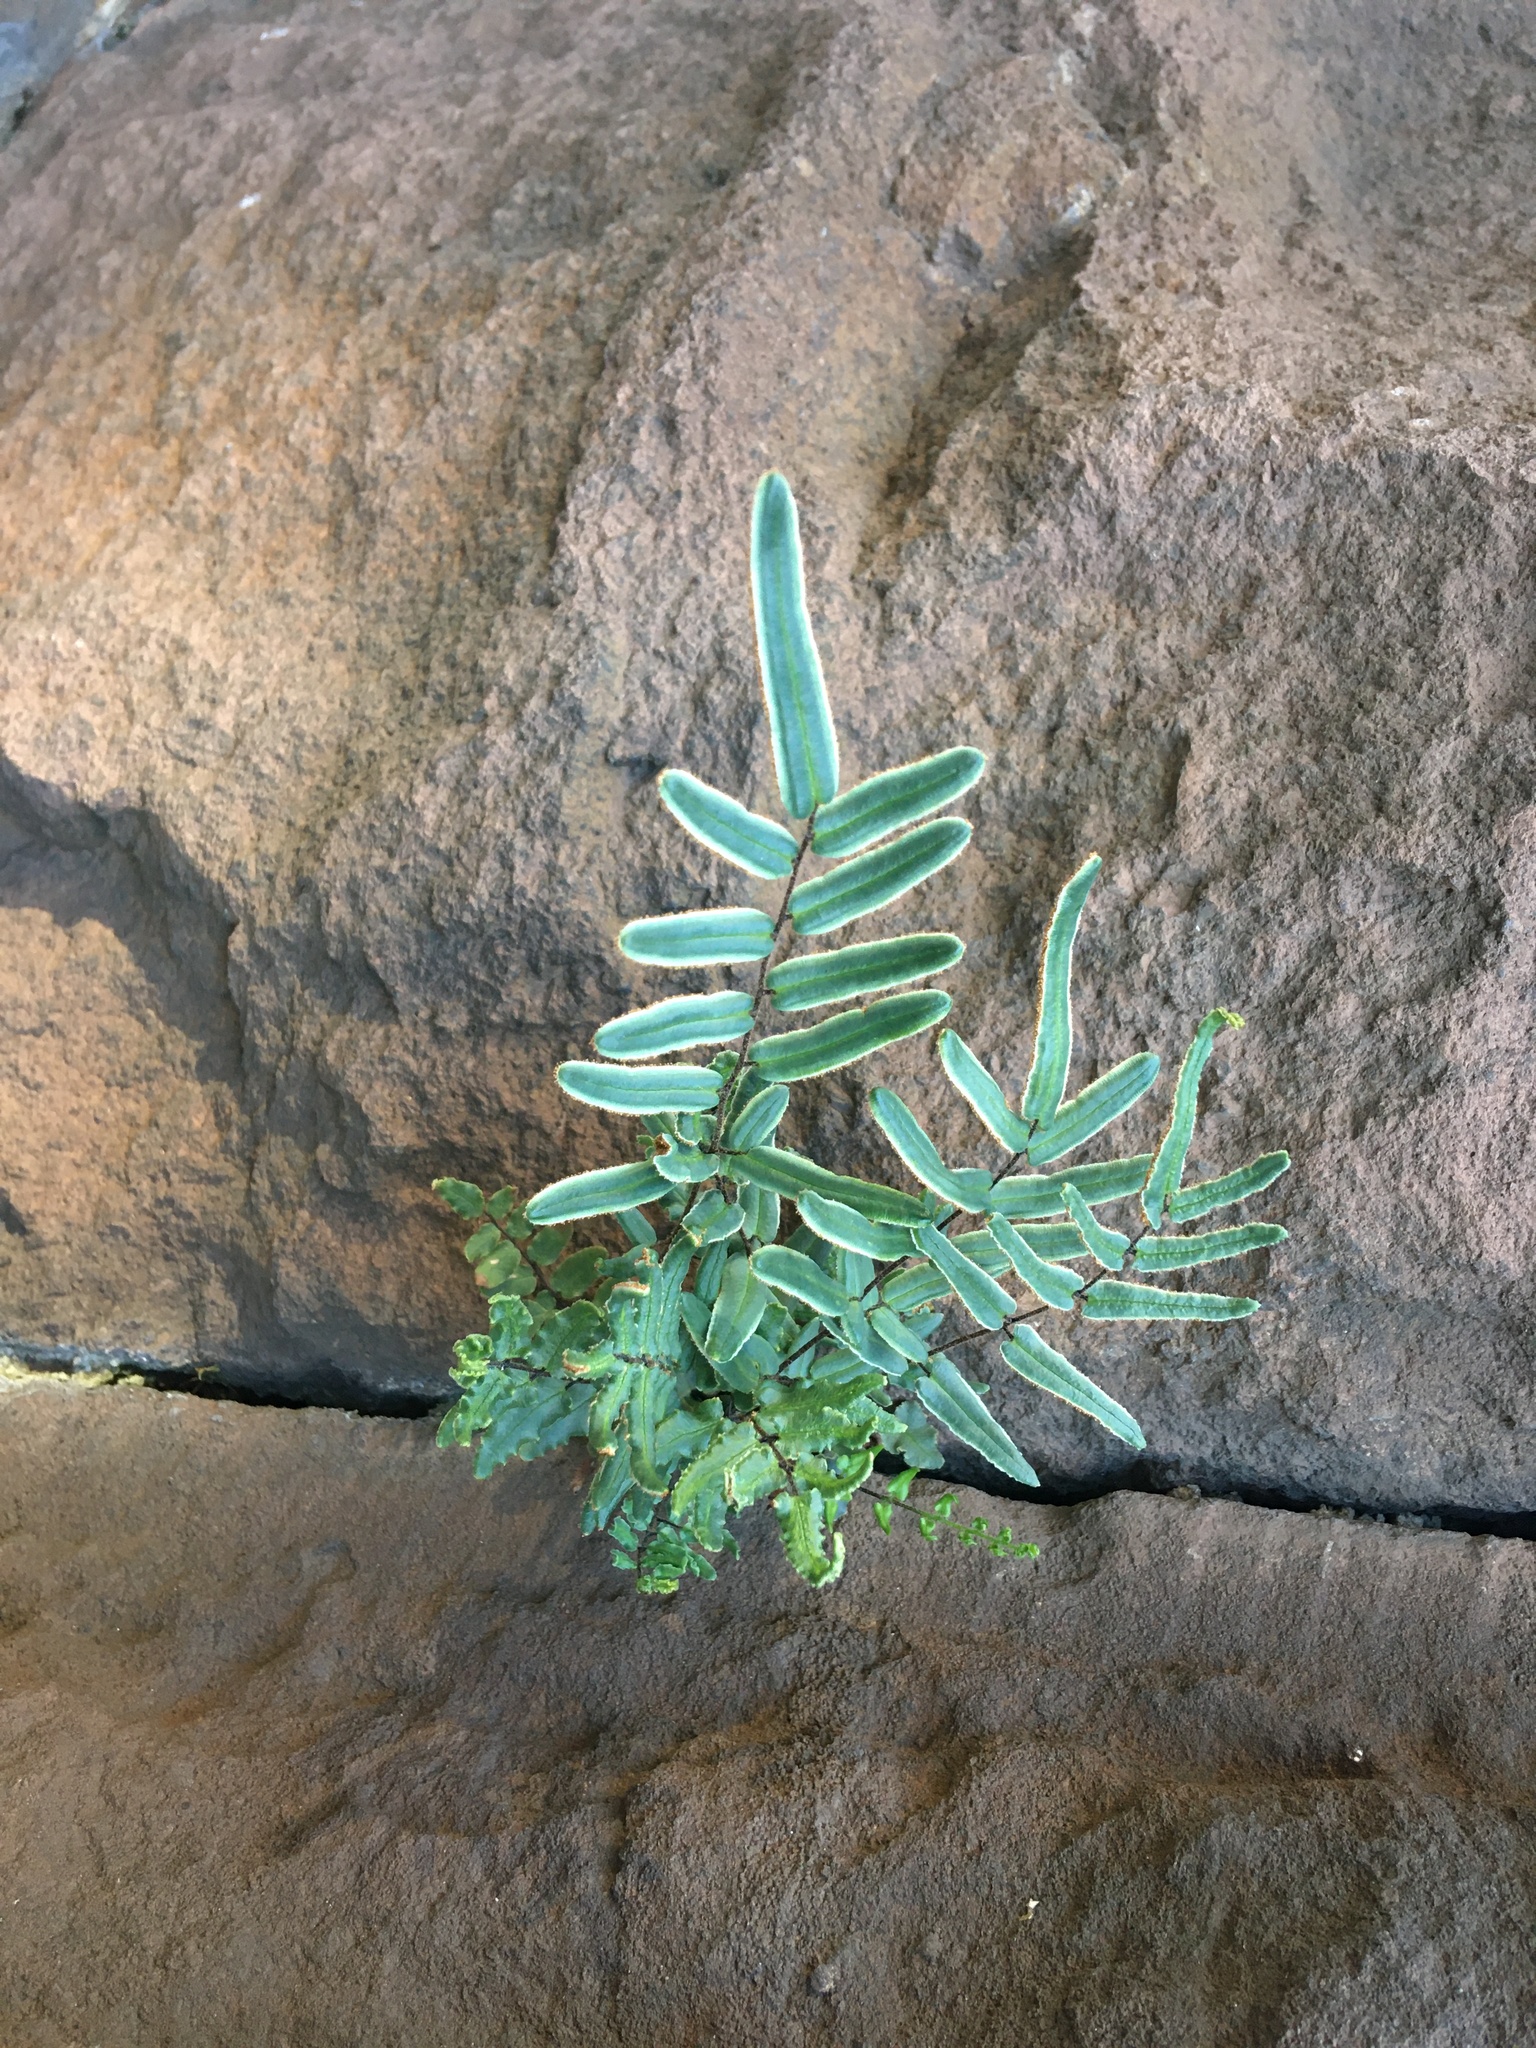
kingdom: Plantae
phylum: Tracheophyta
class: Polypodiopsida
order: Polypodiales
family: Pteridaceae
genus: Pellaea
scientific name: Pellaea atropurpurea
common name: Hairy cliffbrake
